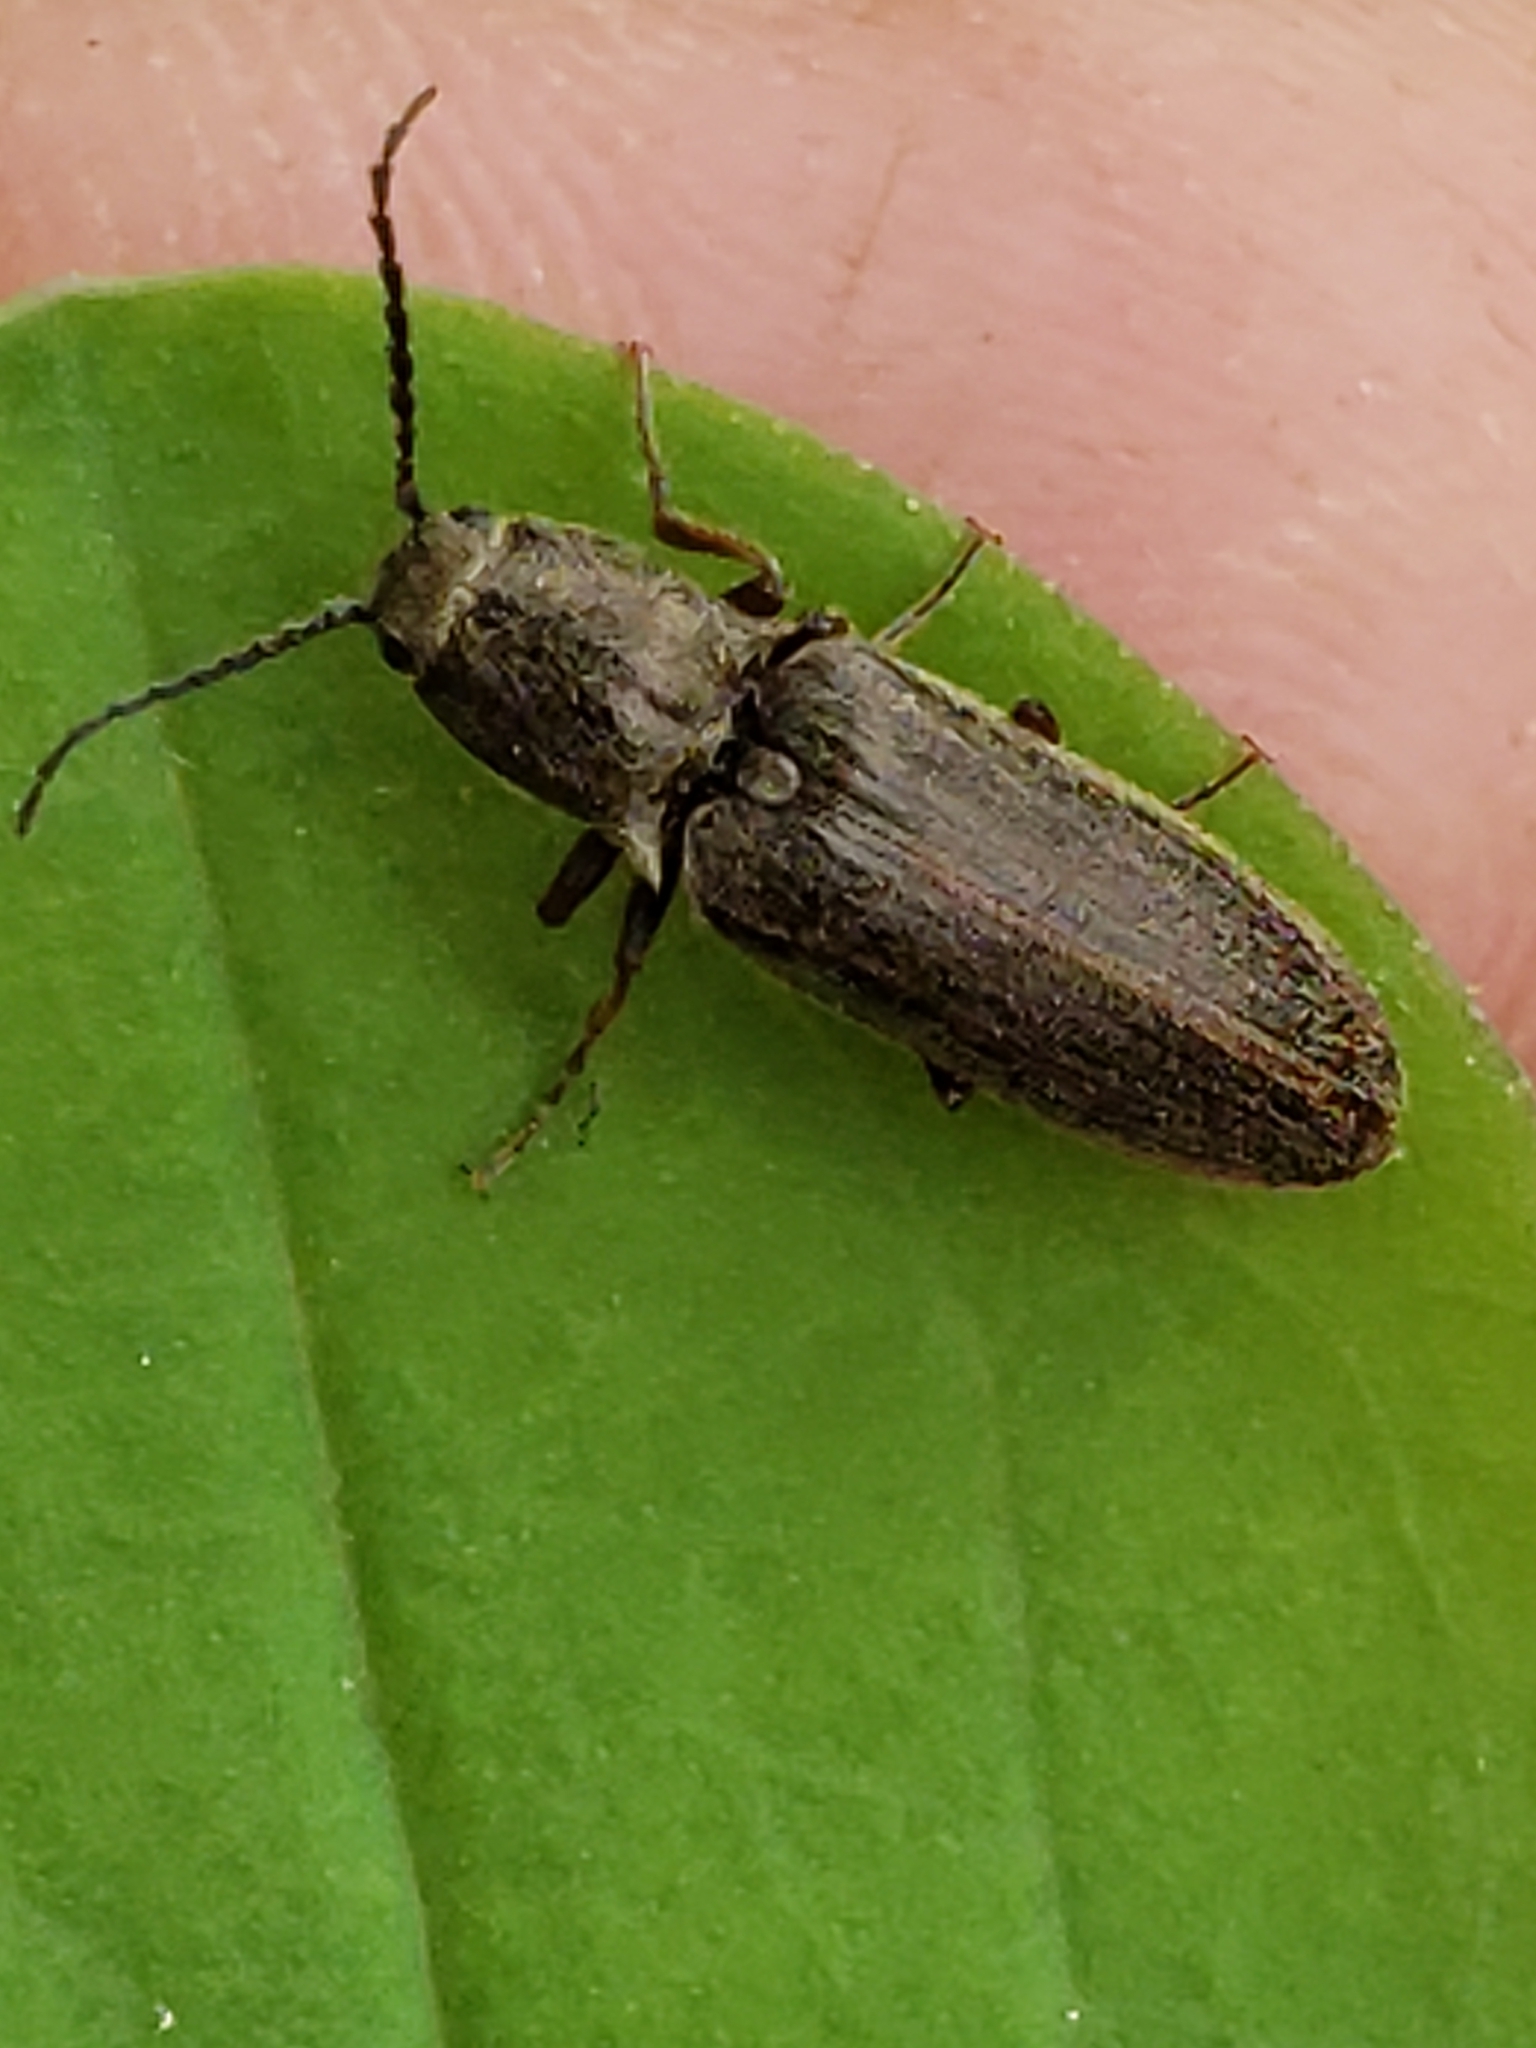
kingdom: Animalia
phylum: Arthropoda
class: Insecta
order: Coleoptera
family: Elateridae
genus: Sylvanelater
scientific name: Sylvanelater cylindriformis
